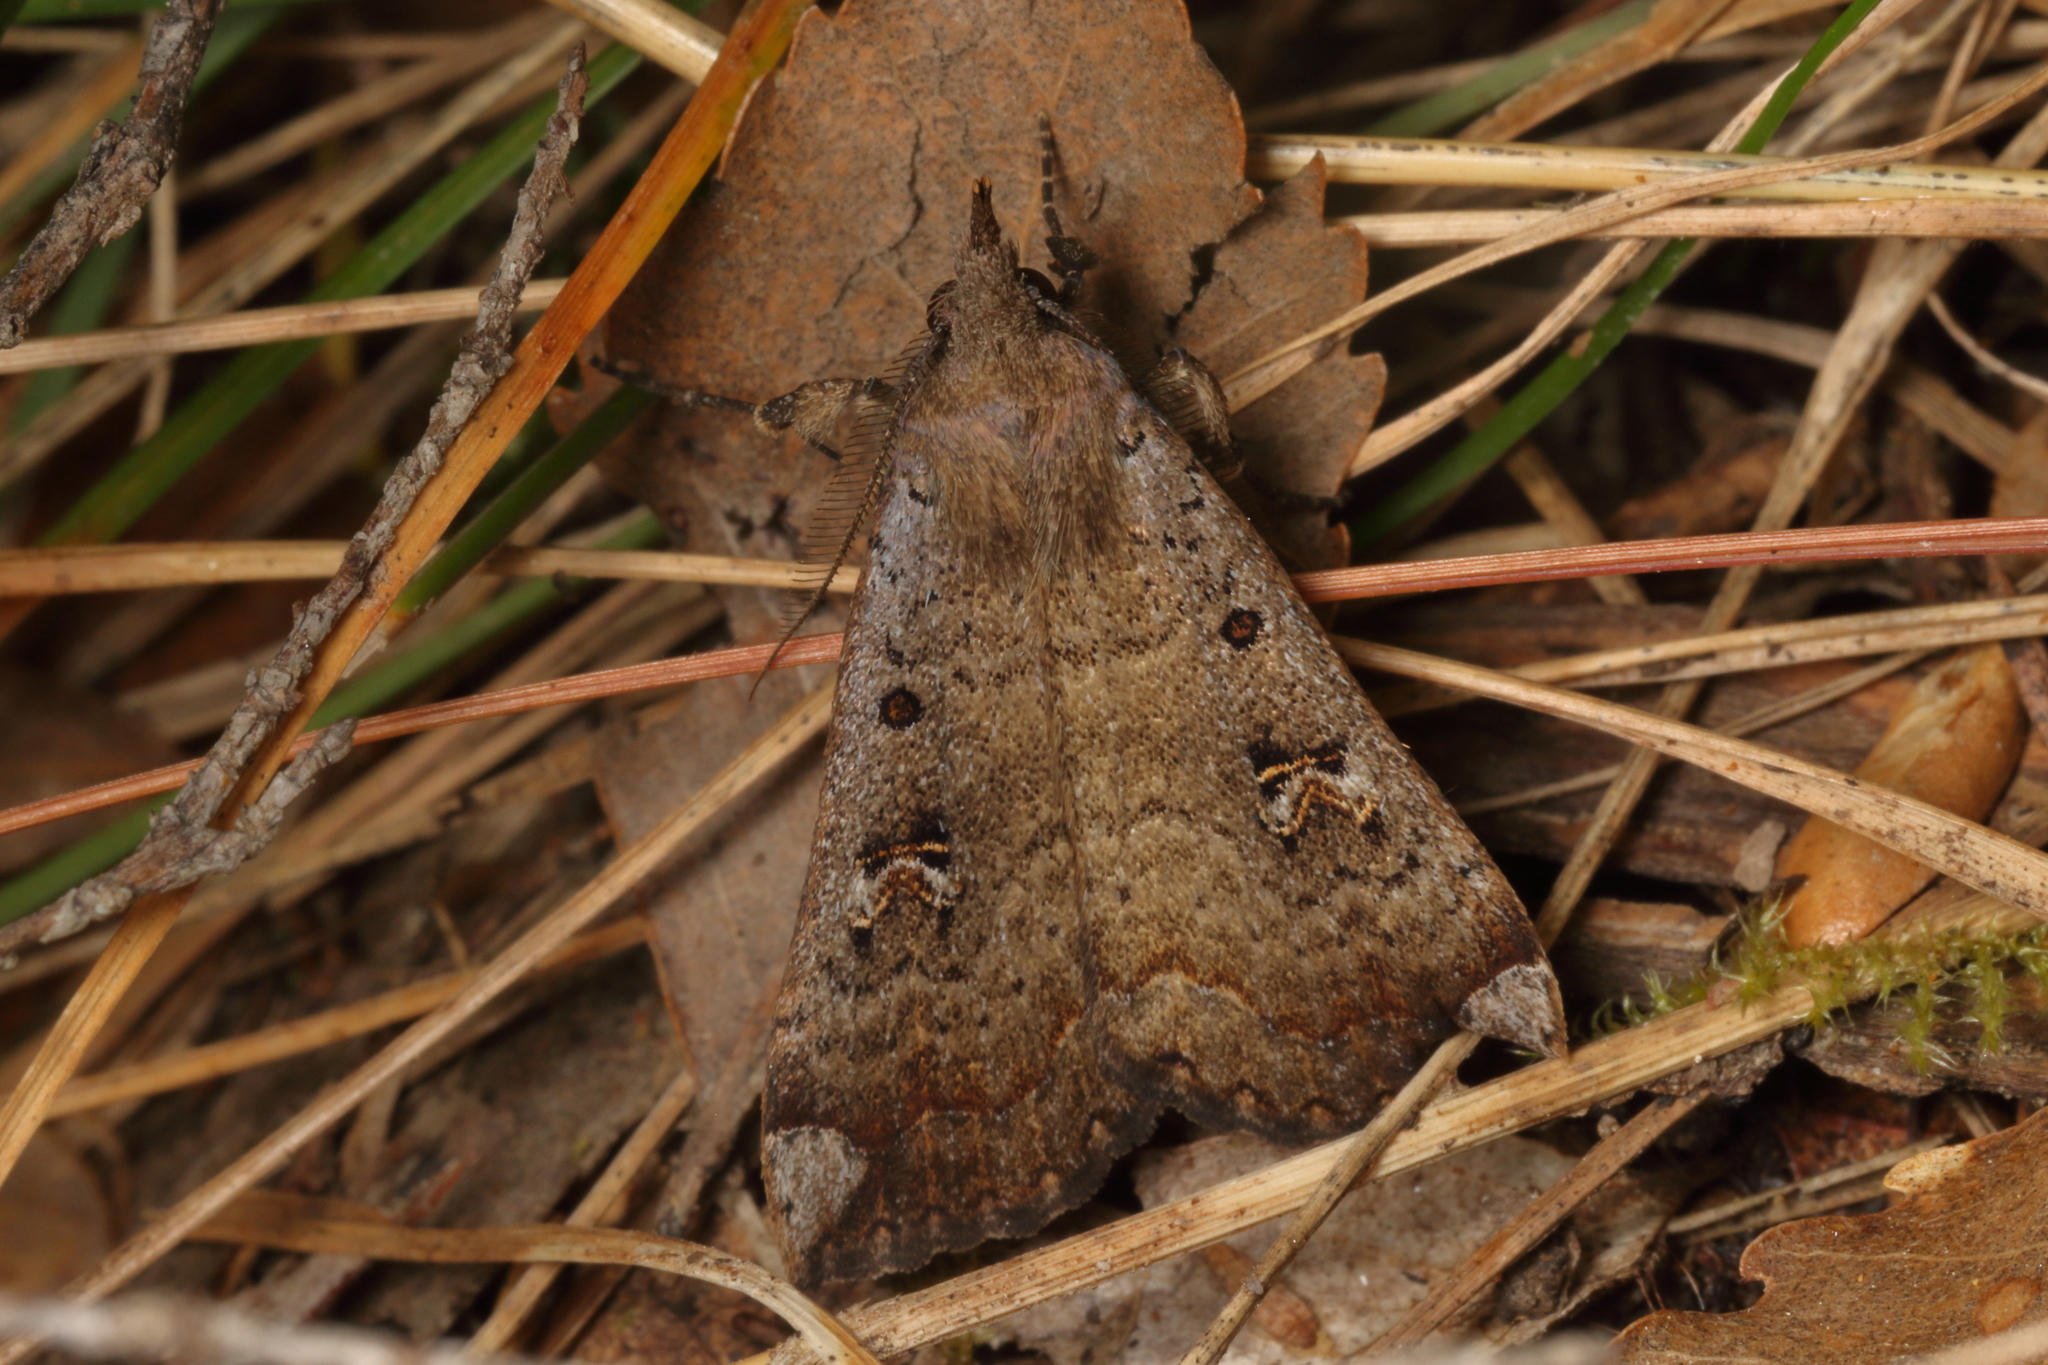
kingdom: Animalia
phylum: Arthropoda
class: Insecta
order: Lepidoptera
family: Erebidae
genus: Rhapsa
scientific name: Rhapsa scotosialis
